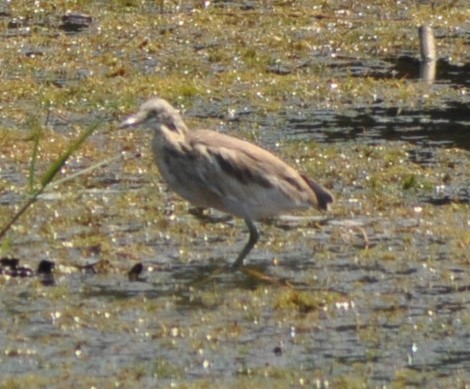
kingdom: Animalia
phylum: Chordata
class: Aves
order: Pelecaniformes
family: Ardeidae
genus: Ardeola
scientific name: Ardeola ralloides
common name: Squacco heron
